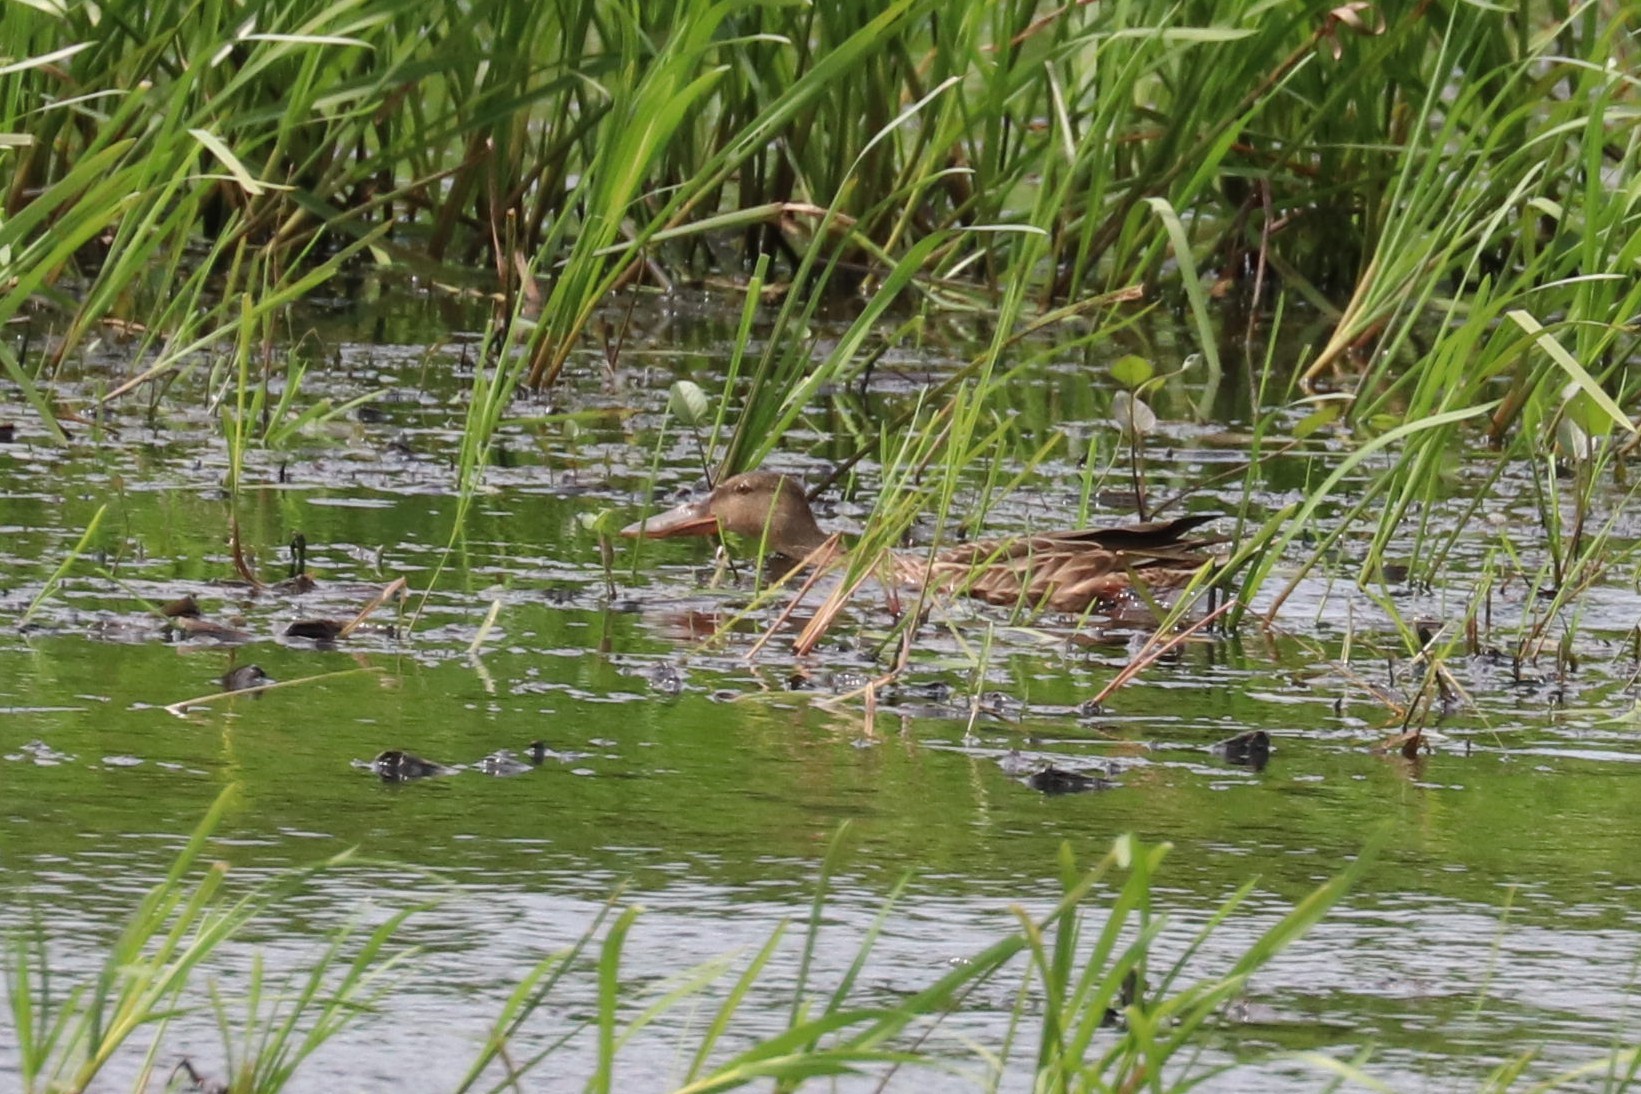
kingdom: Animalia
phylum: Chordata
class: Aves
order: Anseriformes
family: Anatidae
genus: Spatula
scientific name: Spatula clypeata
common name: Northern shoveler
